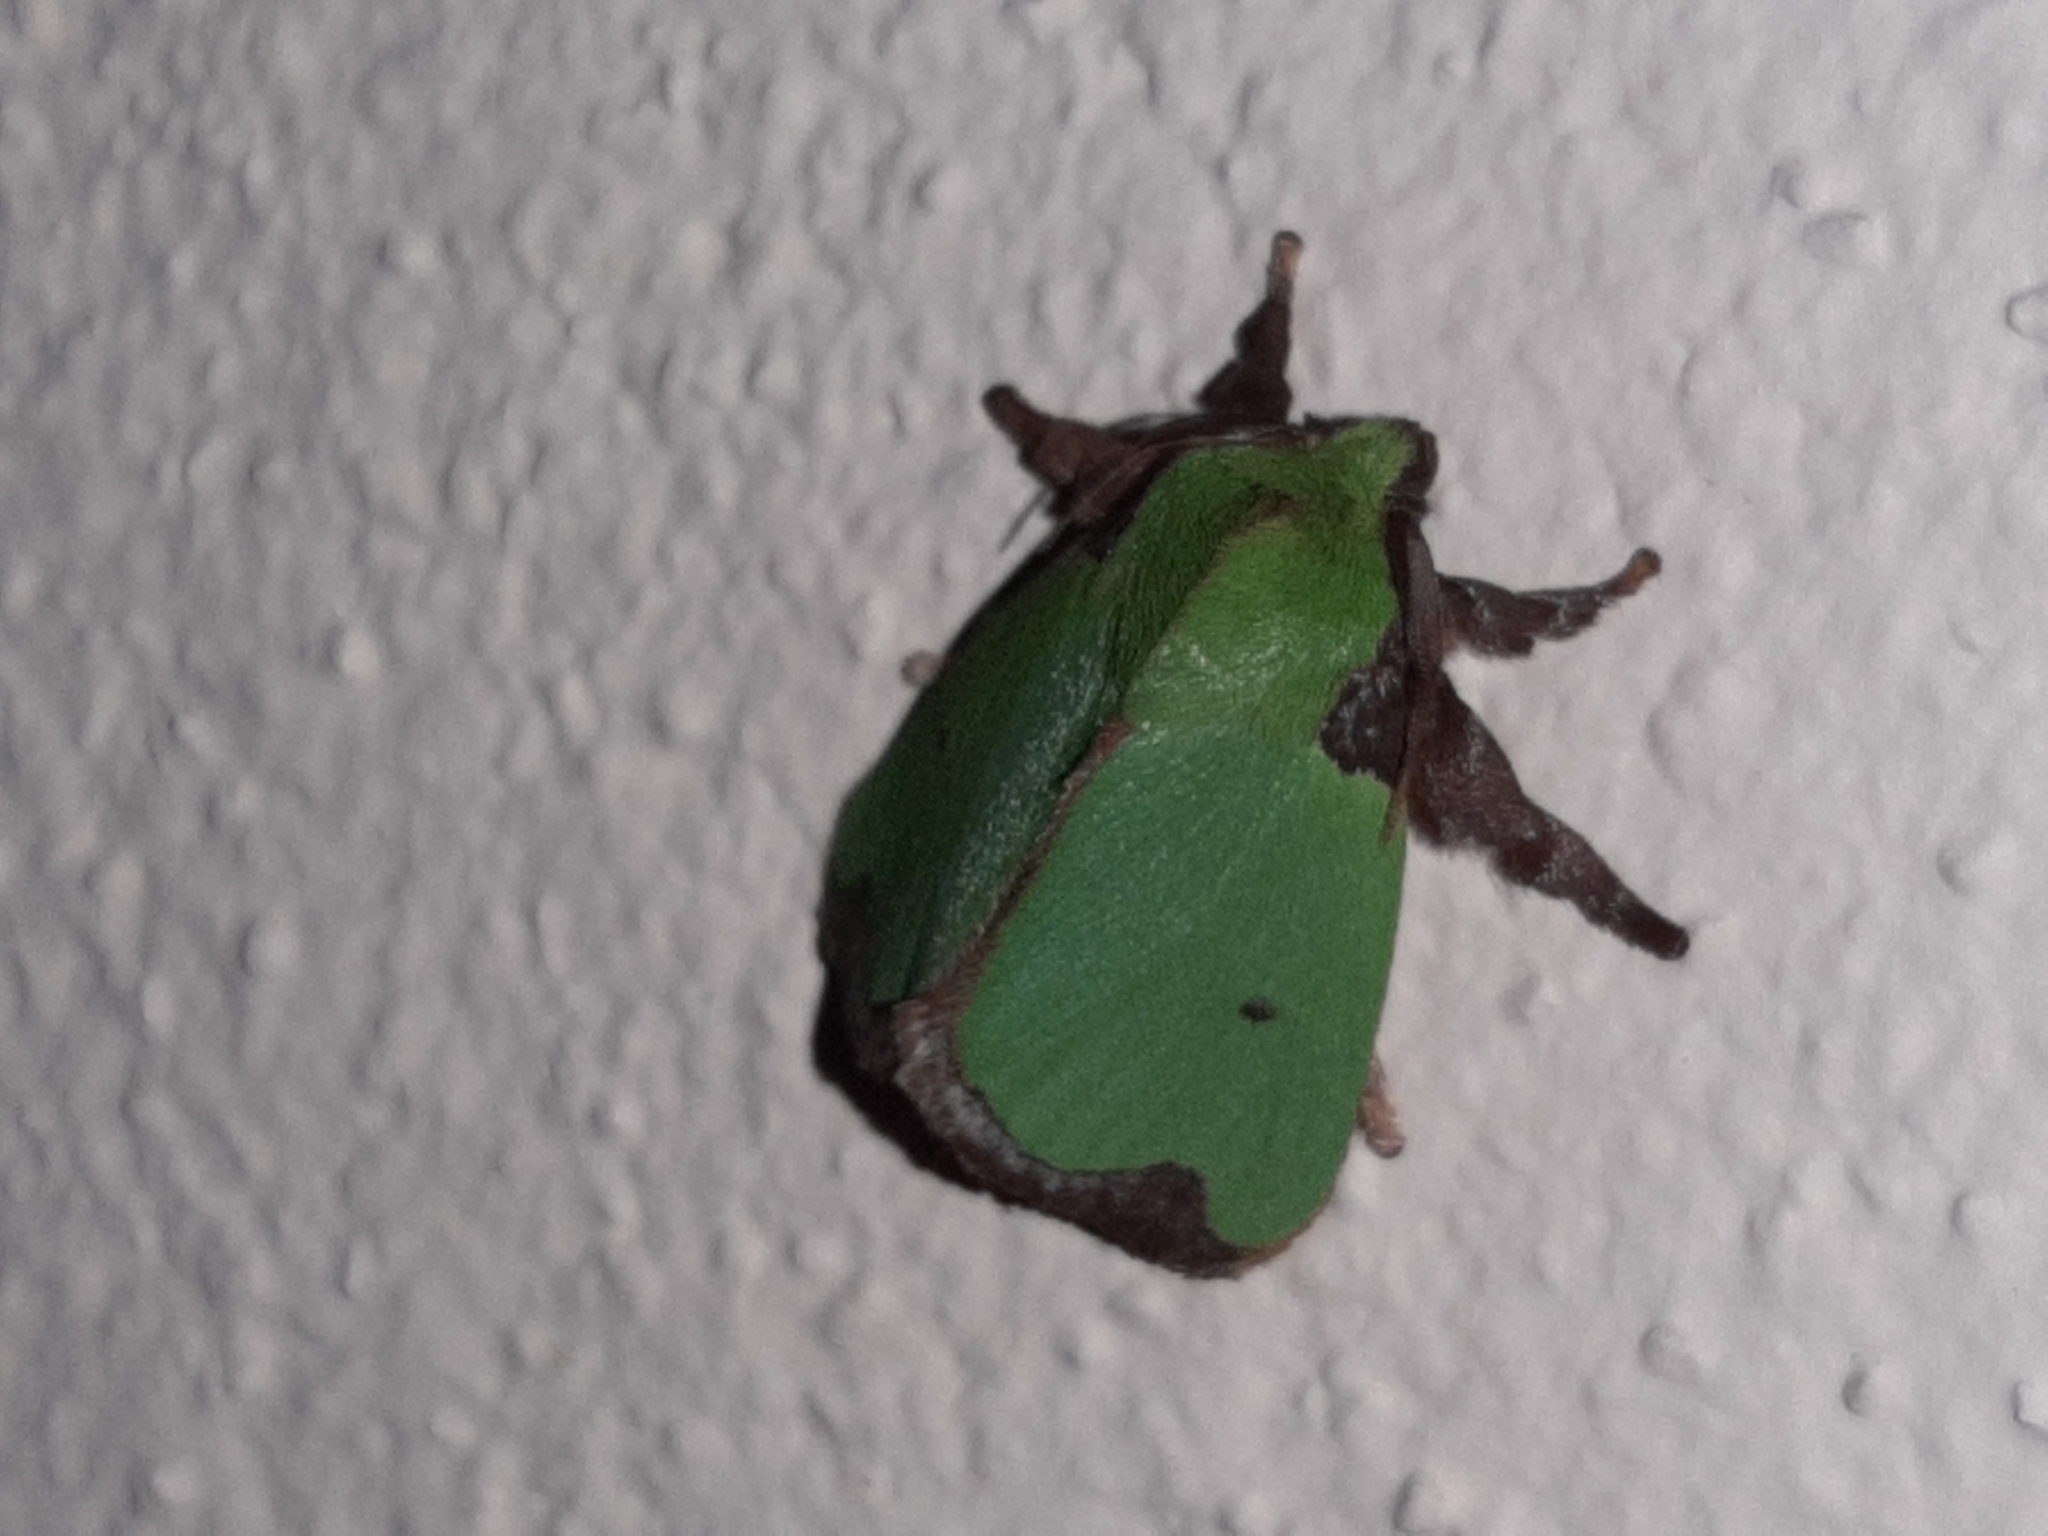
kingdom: Animalia
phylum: Arthropoda
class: Insecta
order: Lepidoptera
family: Limacodidae
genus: Parasa
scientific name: Parasa wellesca
